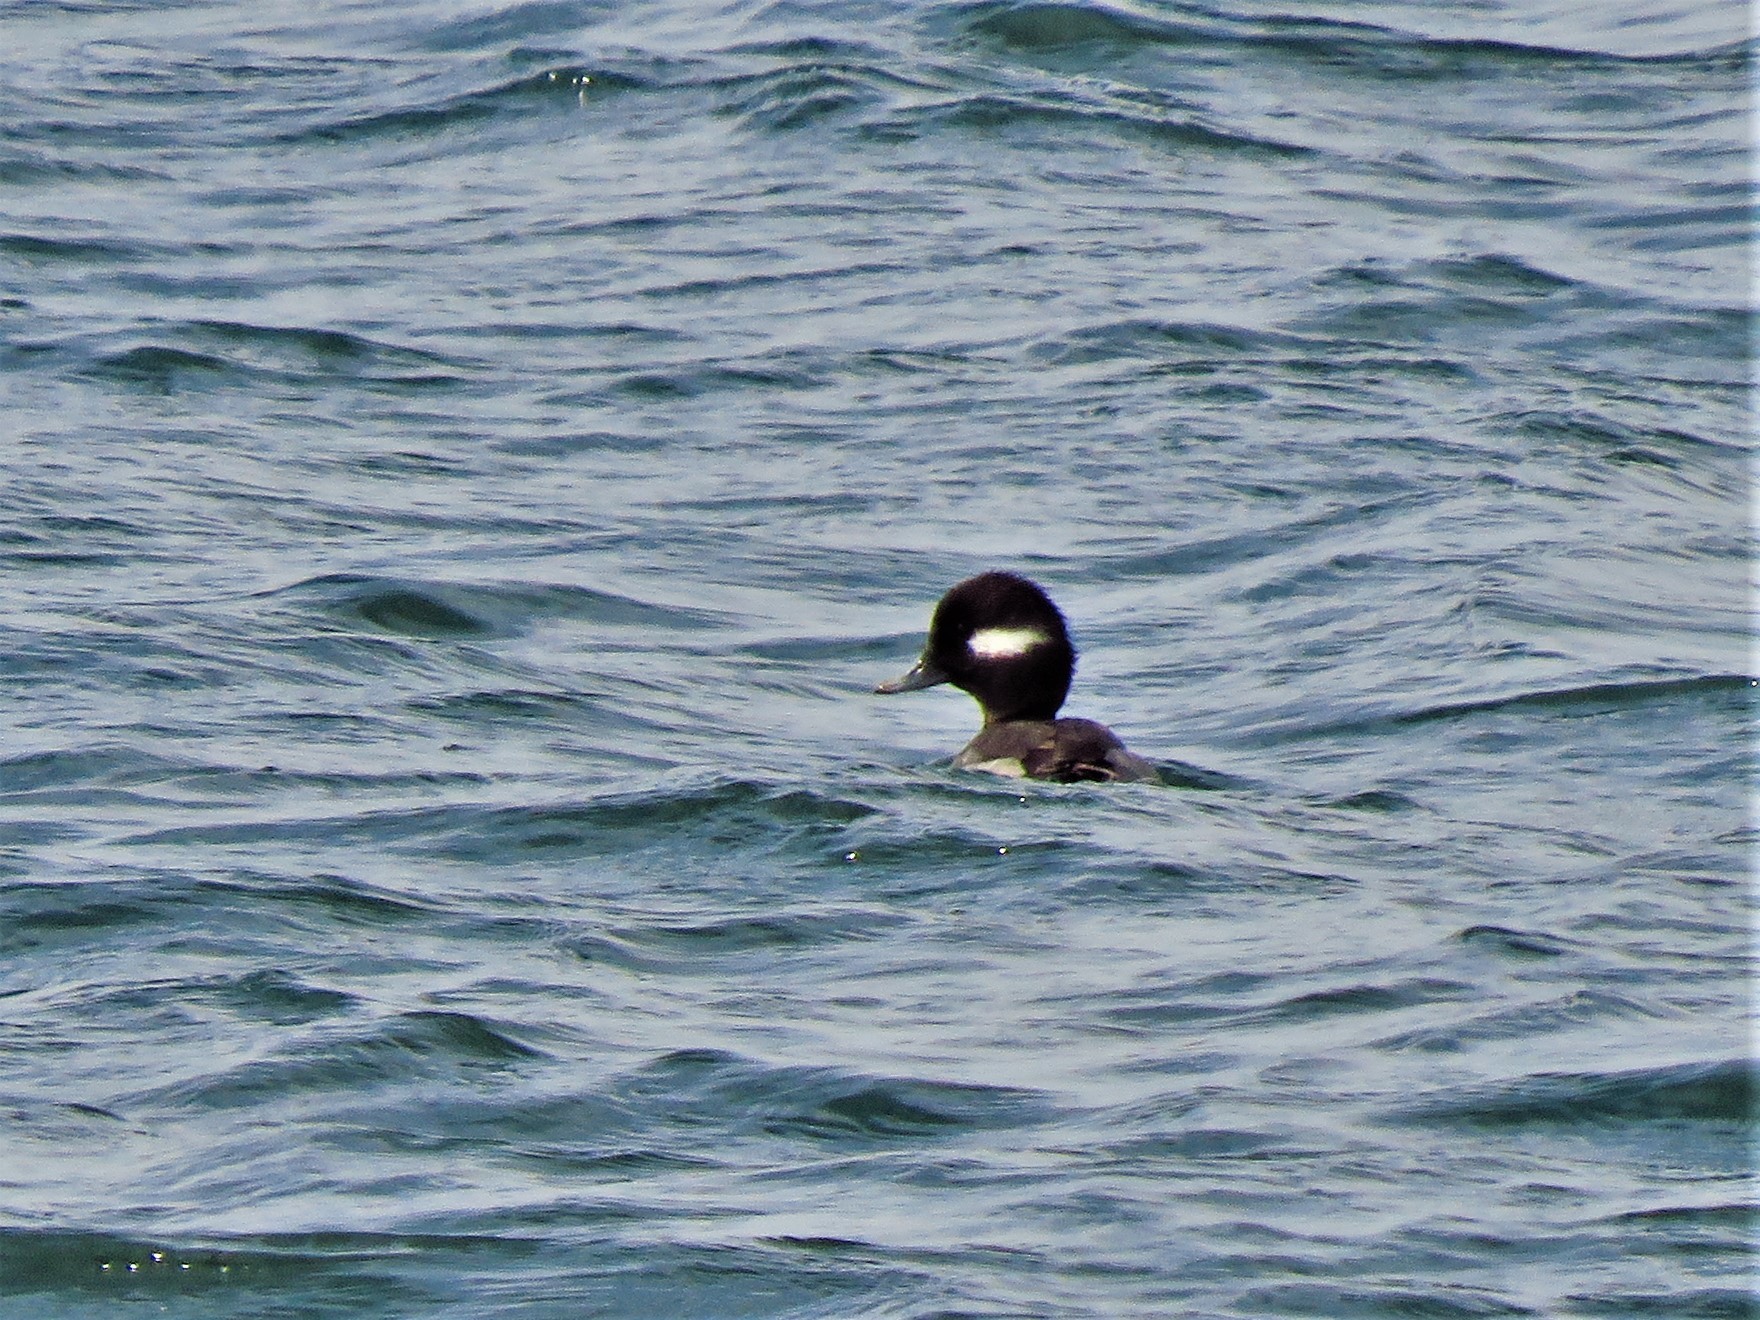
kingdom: Animalia
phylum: Chordata
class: Aves
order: Anseriformes
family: Anatidae
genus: Bucephala
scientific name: Bucephala albeola
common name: Bufflehead
